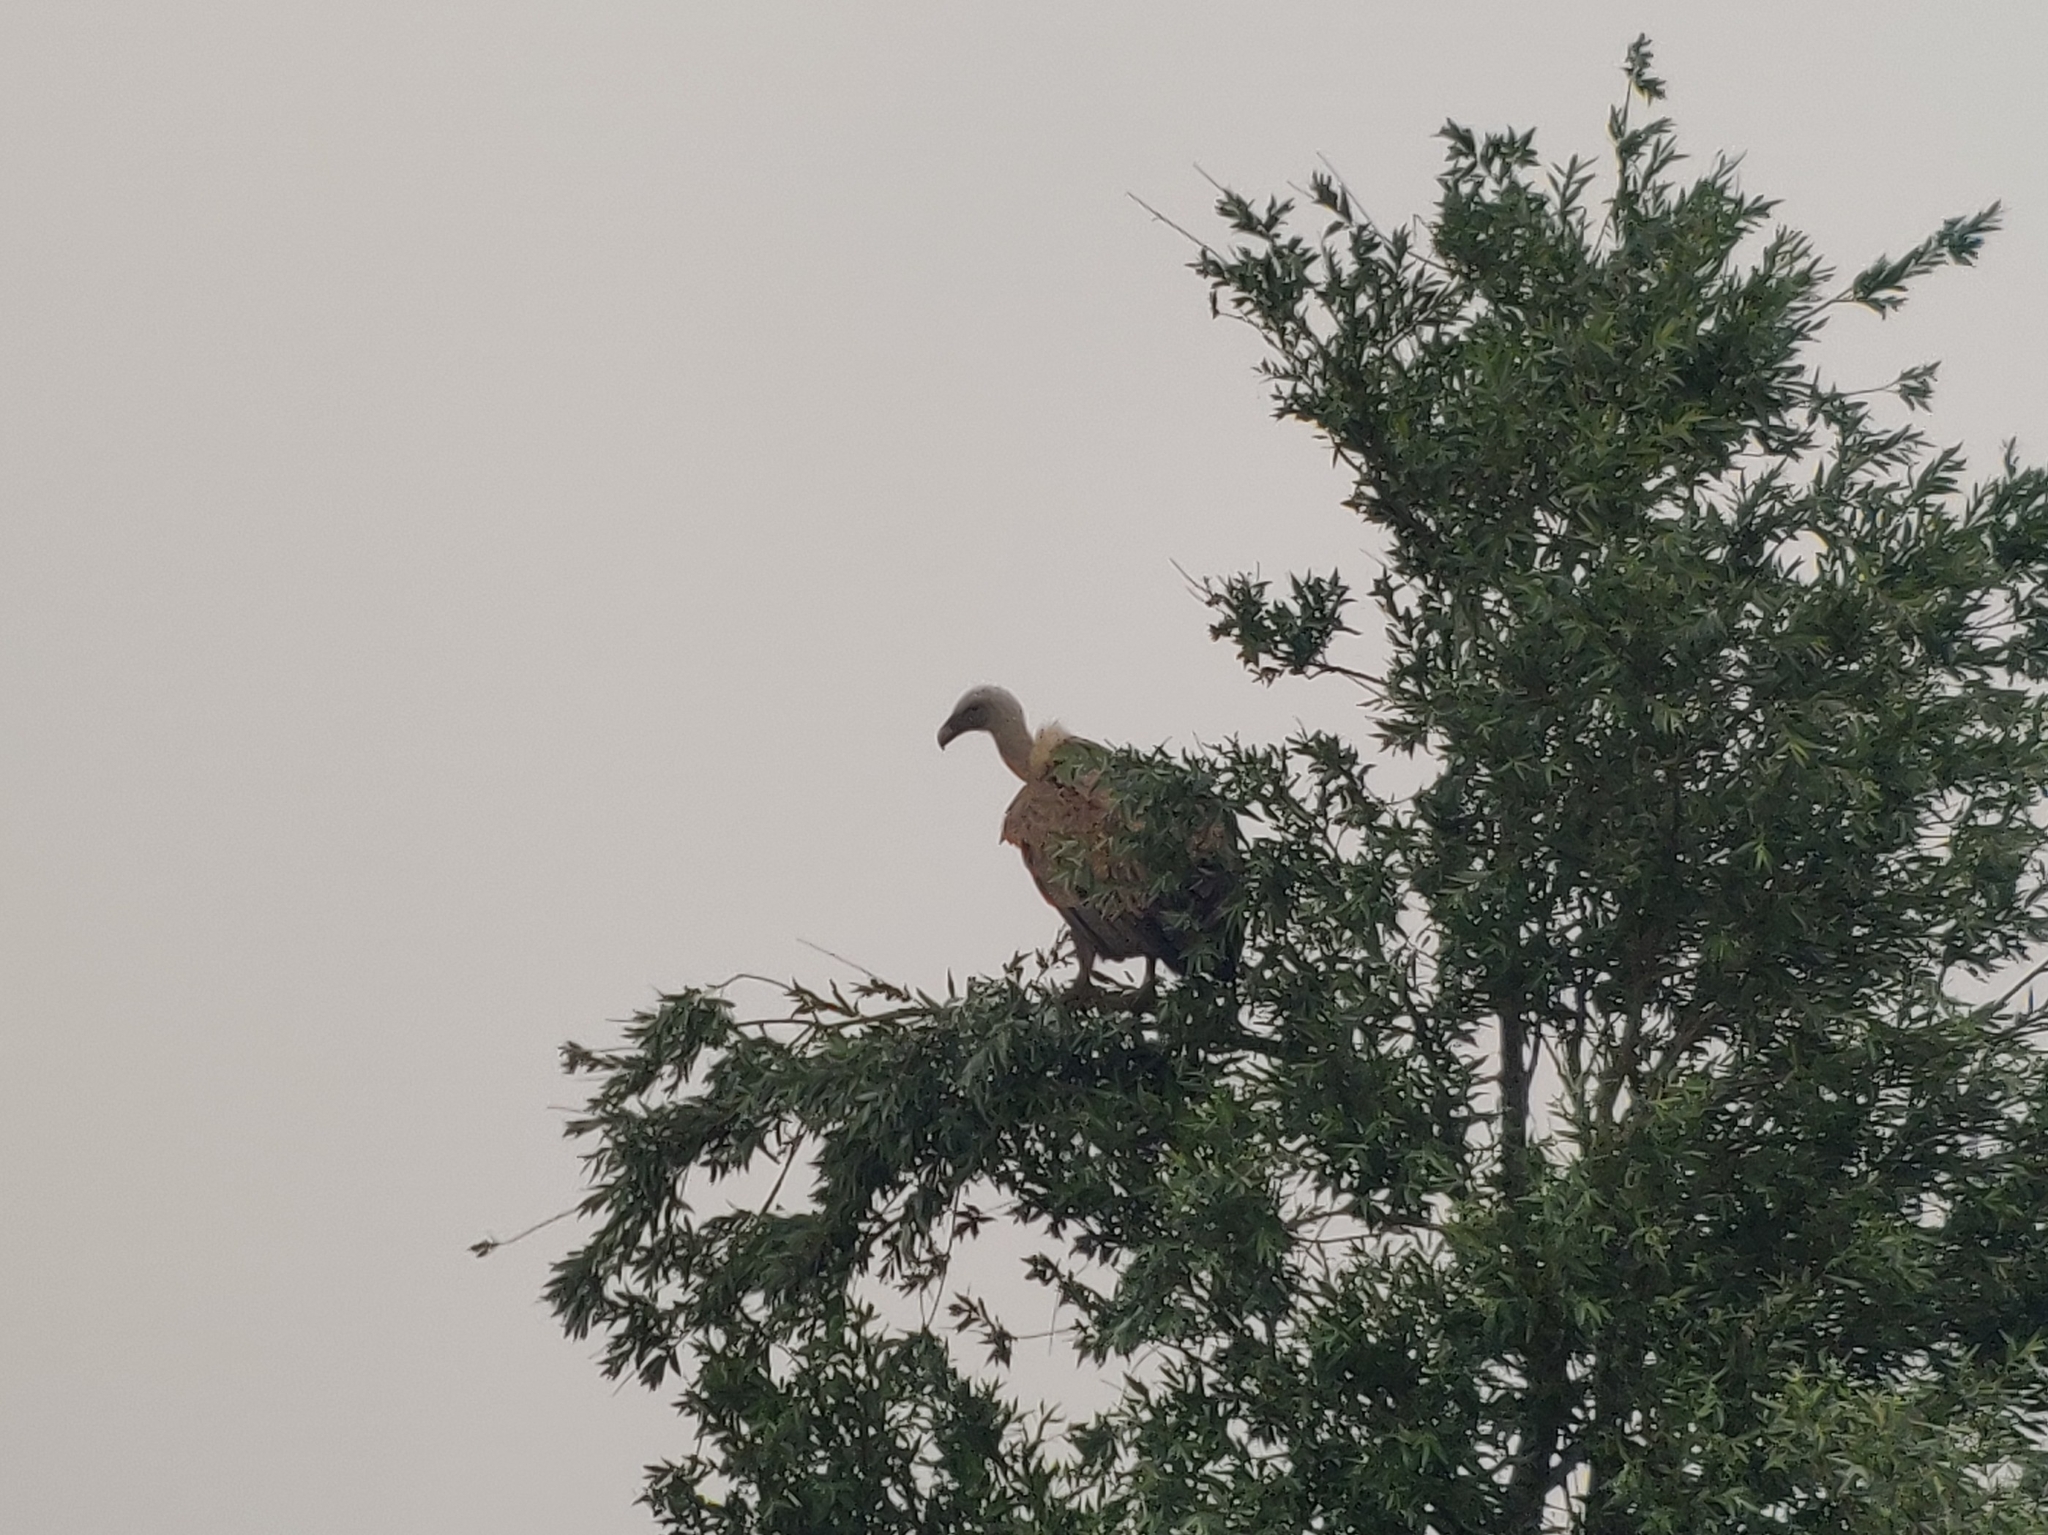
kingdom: Animalia
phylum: Chordata
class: Aves
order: Accipitriformes
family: Accipitridae
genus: Gyps
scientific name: Gyps fulvus
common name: Griffon vulture
